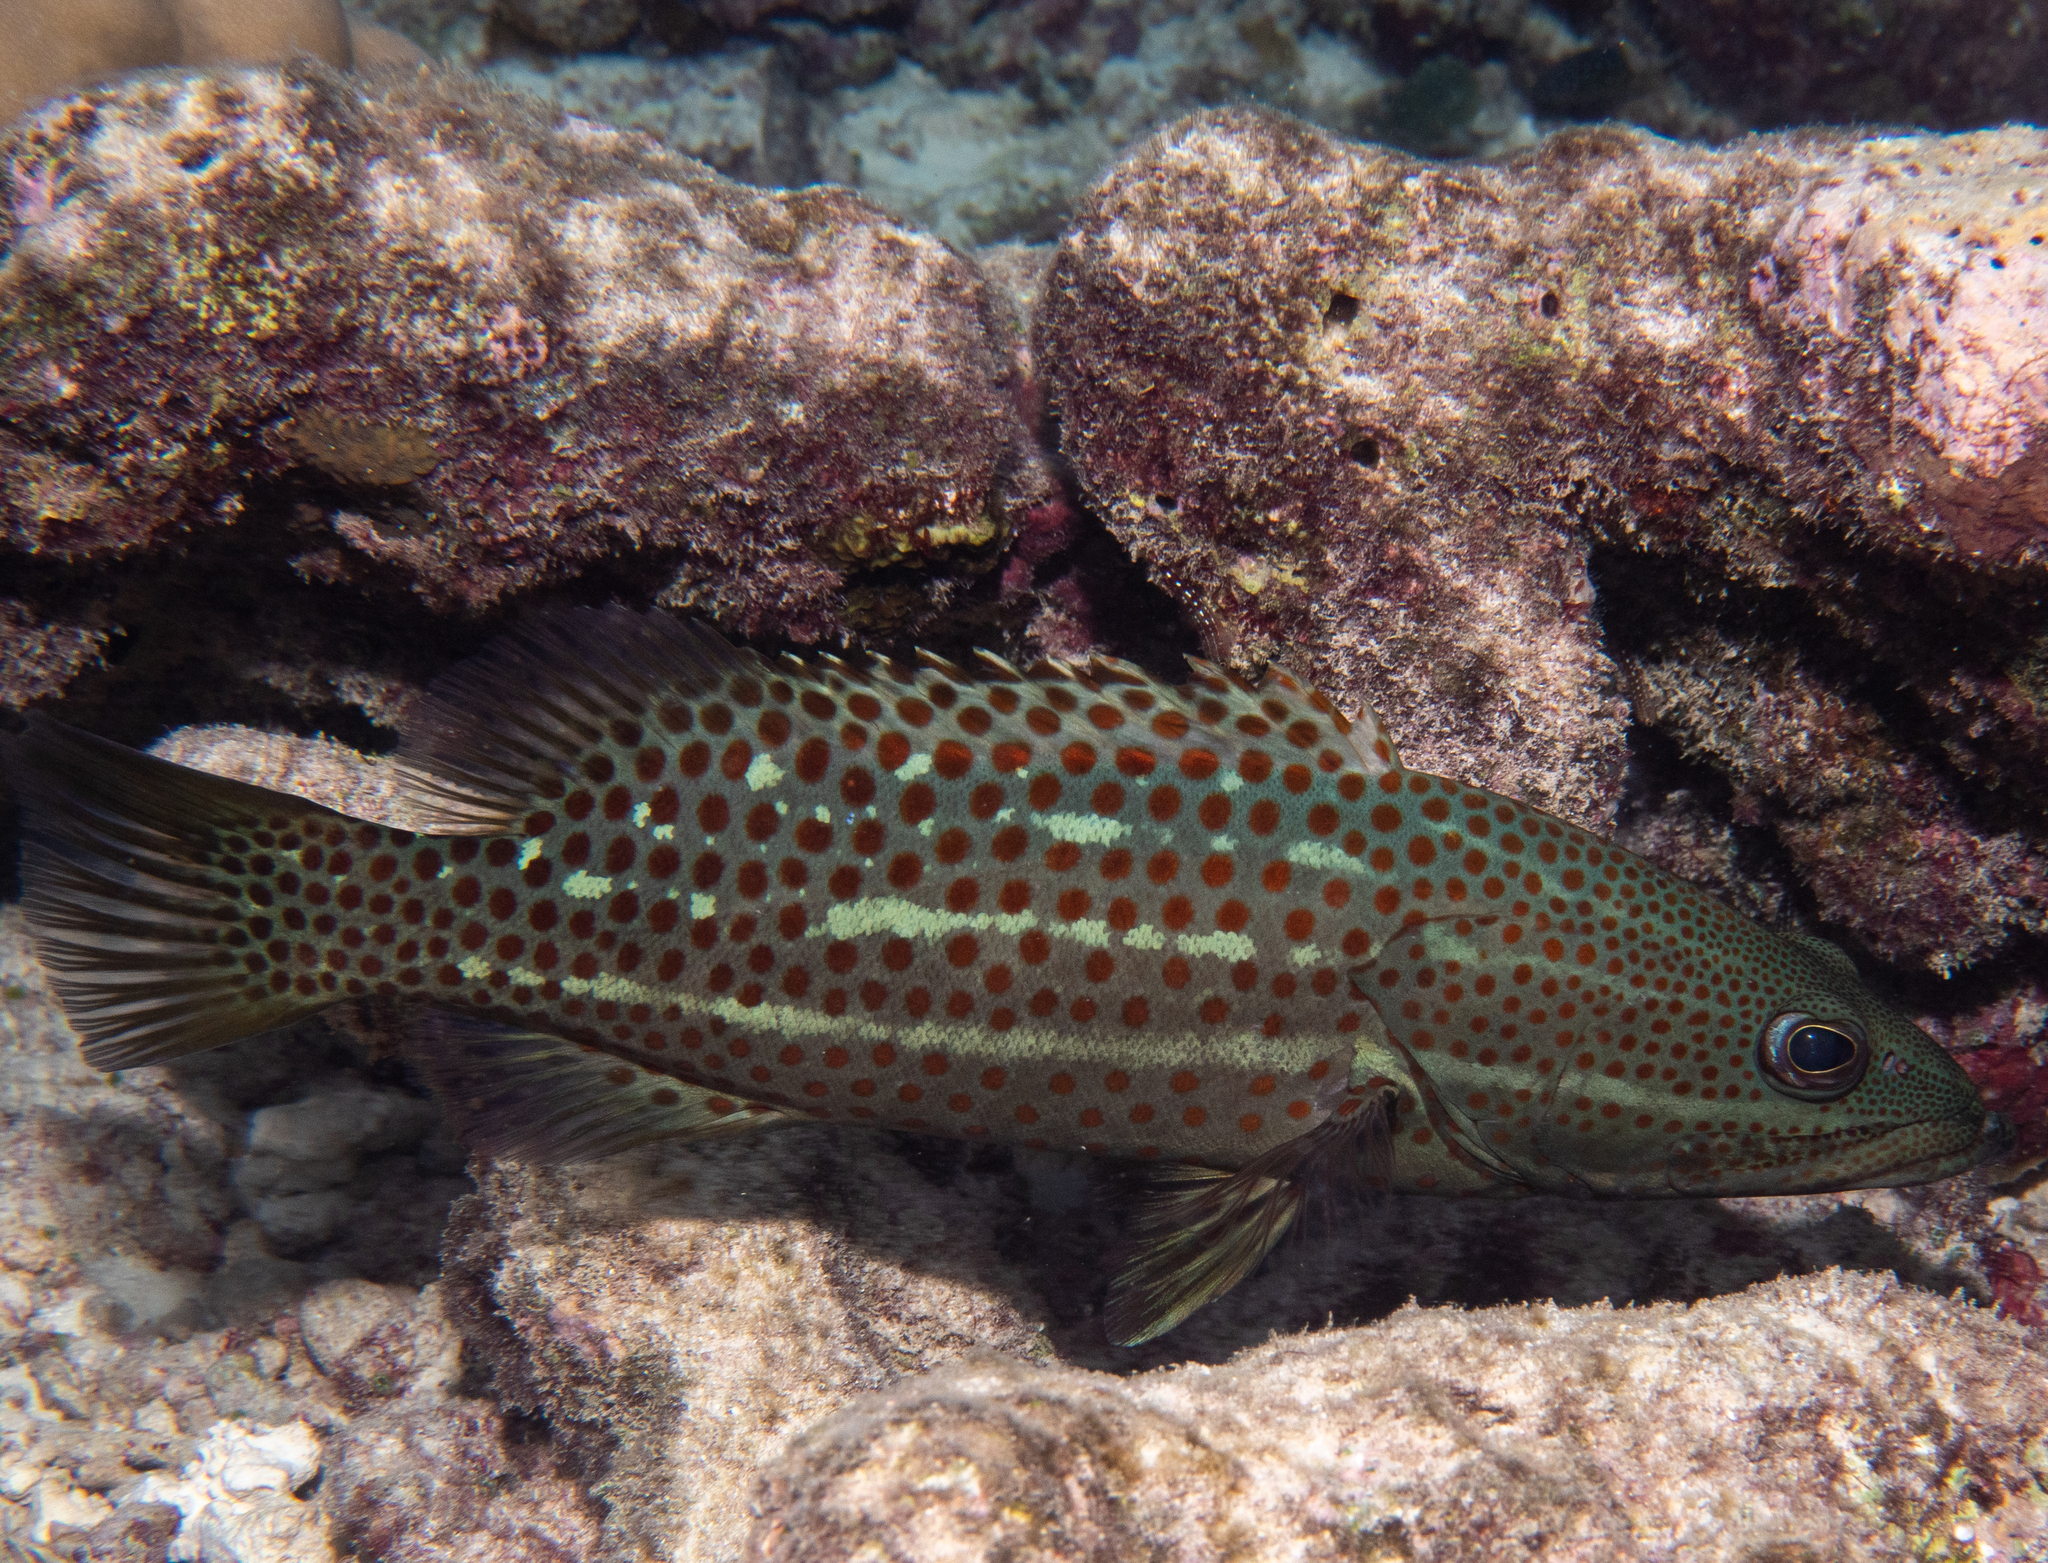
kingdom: Animalia
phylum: Chordata
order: Perciformes
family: Serranidae
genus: Anyperodon
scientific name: Anyperodon leucogrammicus
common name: Slender grouper
